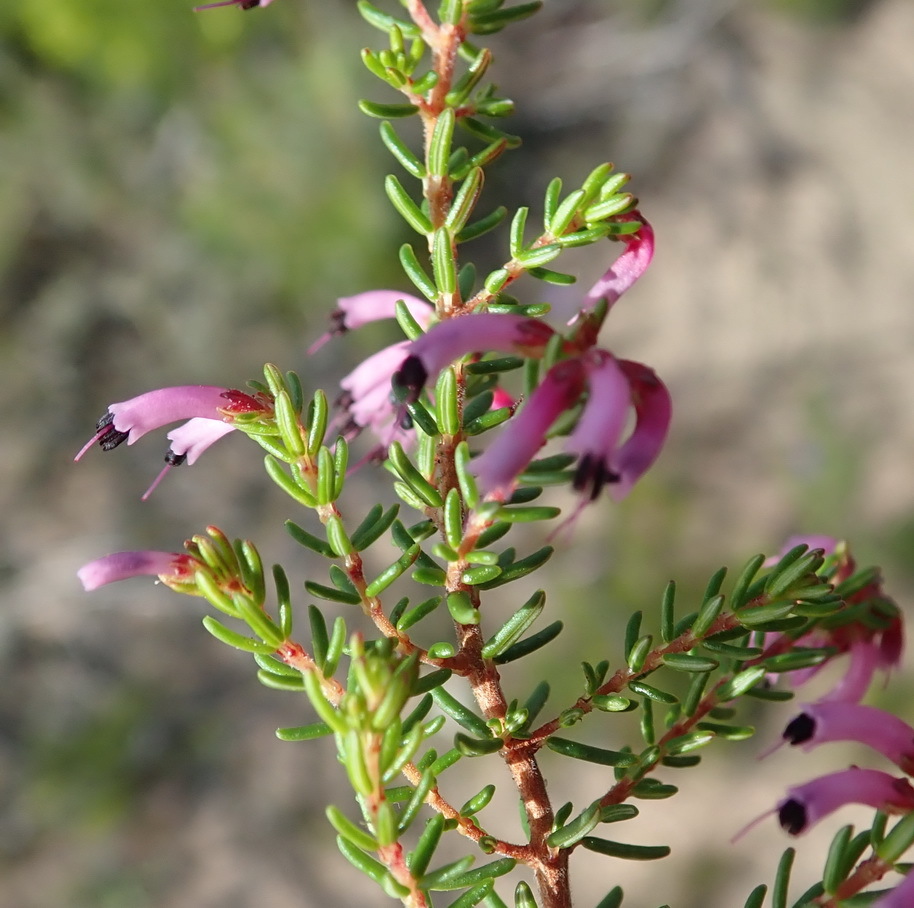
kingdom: Plantae
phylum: Tracheophyta
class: Magnoliopsida
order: Ericales
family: Ericaceae
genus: Erica
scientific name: Erica dispar
